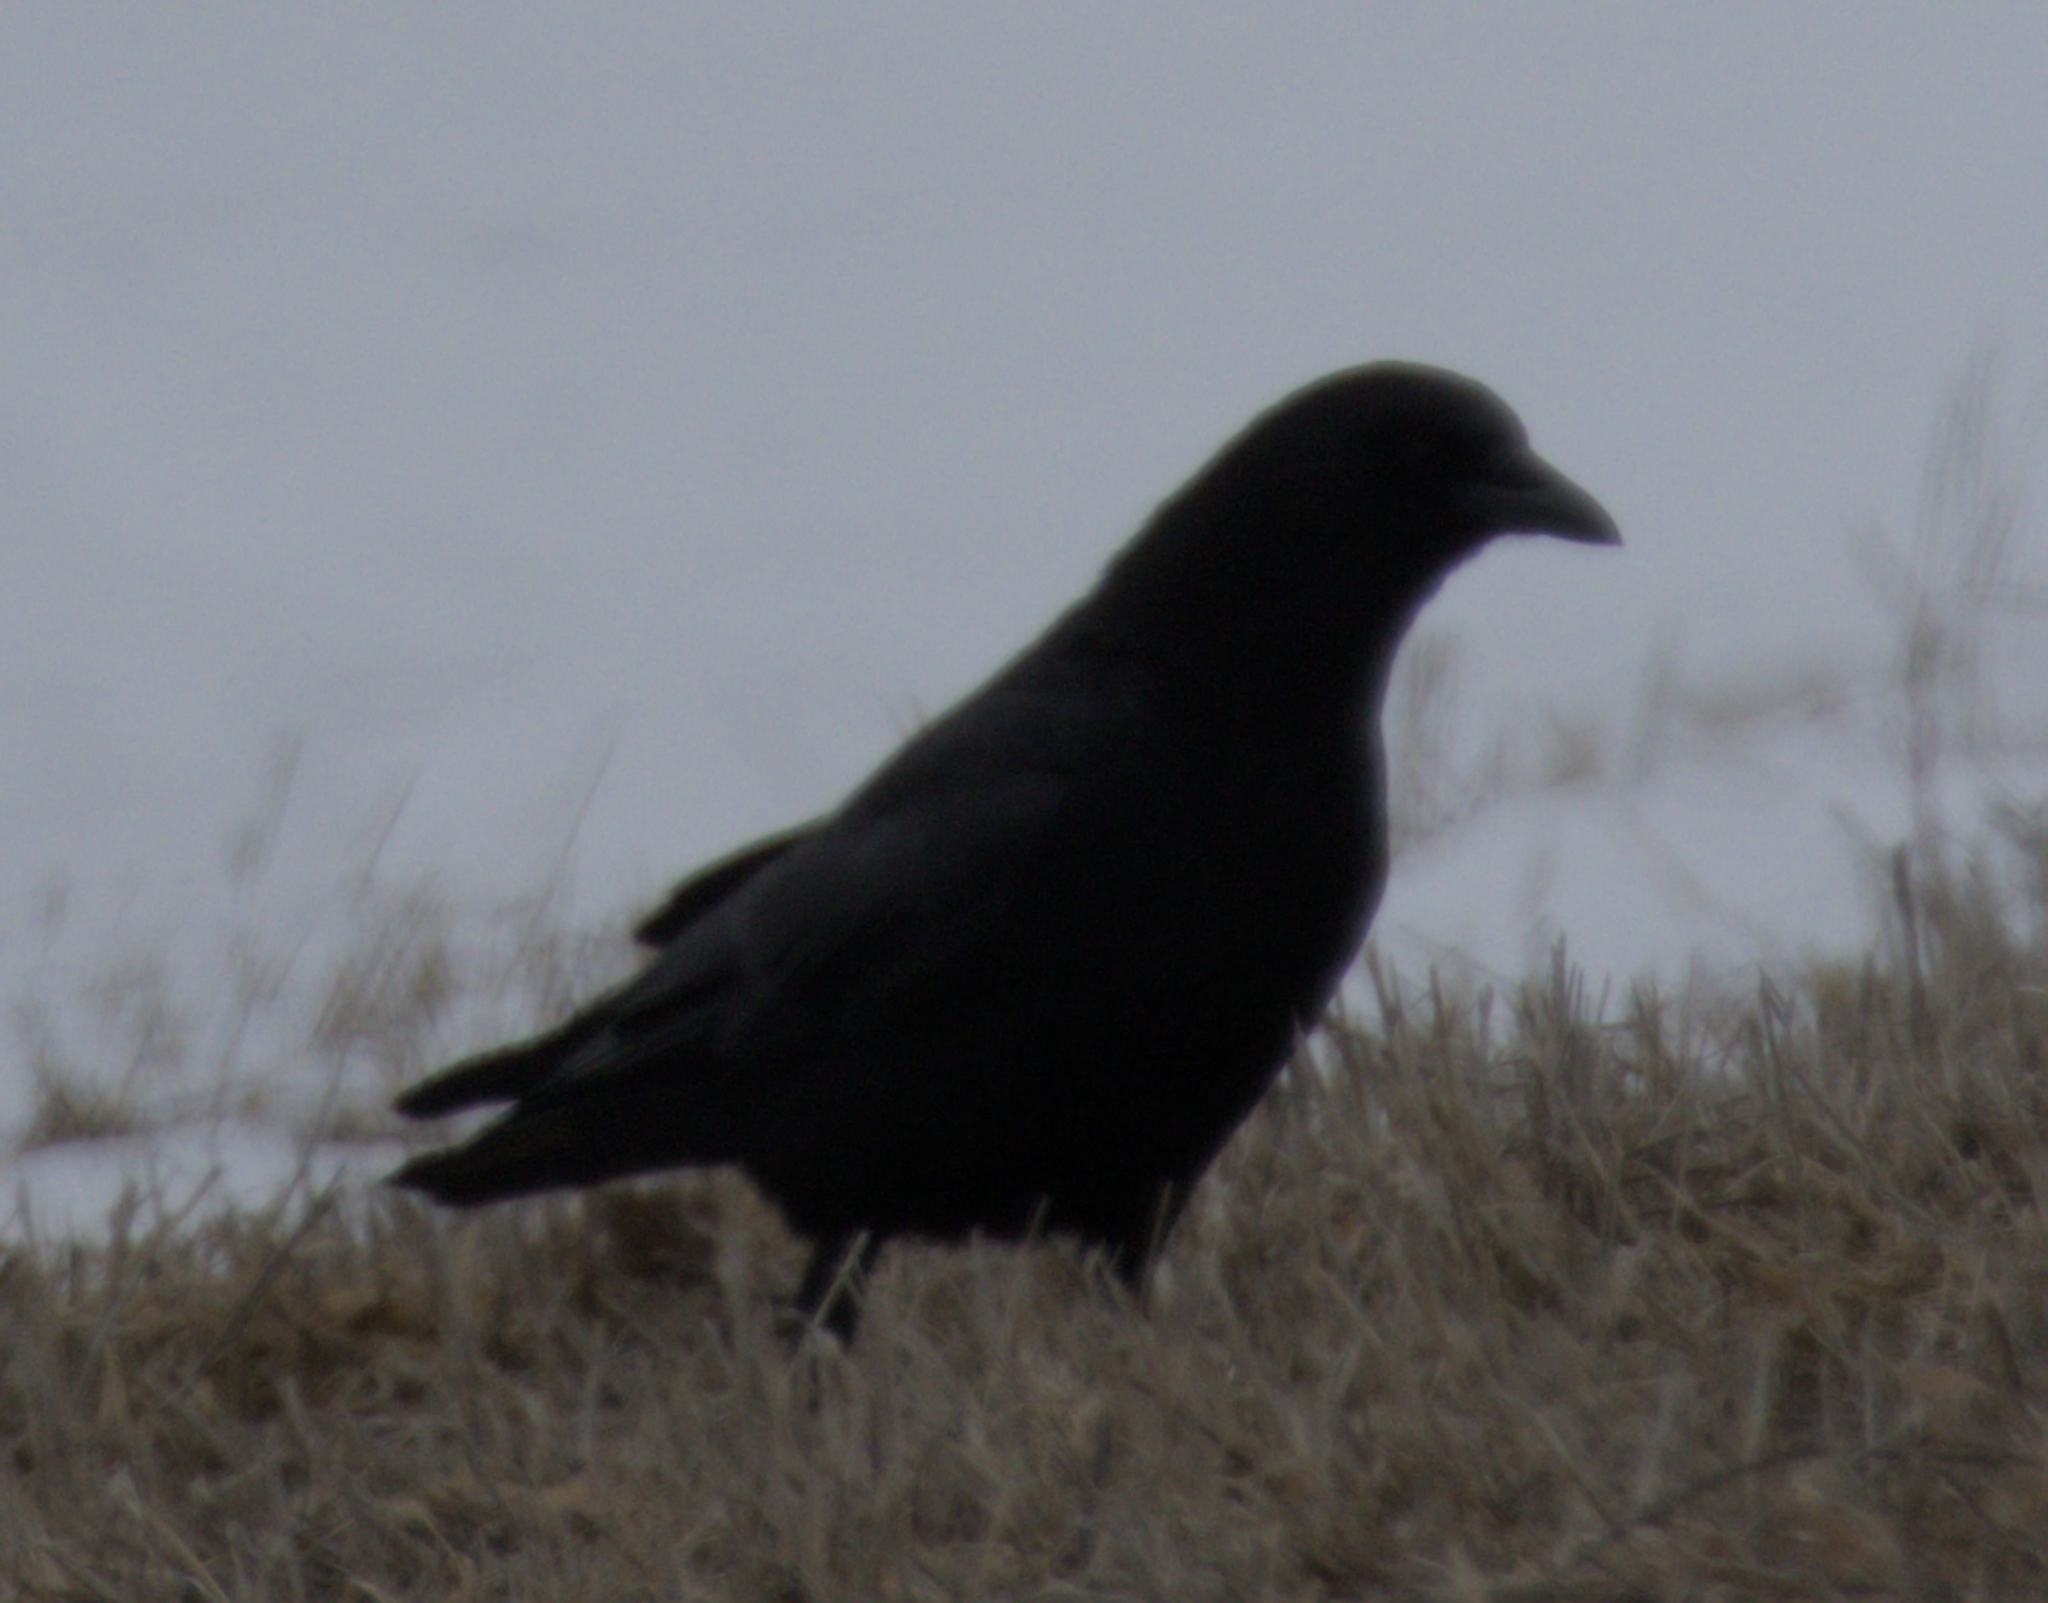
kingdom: Animalia
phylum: Chordata
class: Aves
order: Passeriformes
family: Corvidae
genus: Corvus
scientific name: Corvus brachyrhynchos
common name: American crow
